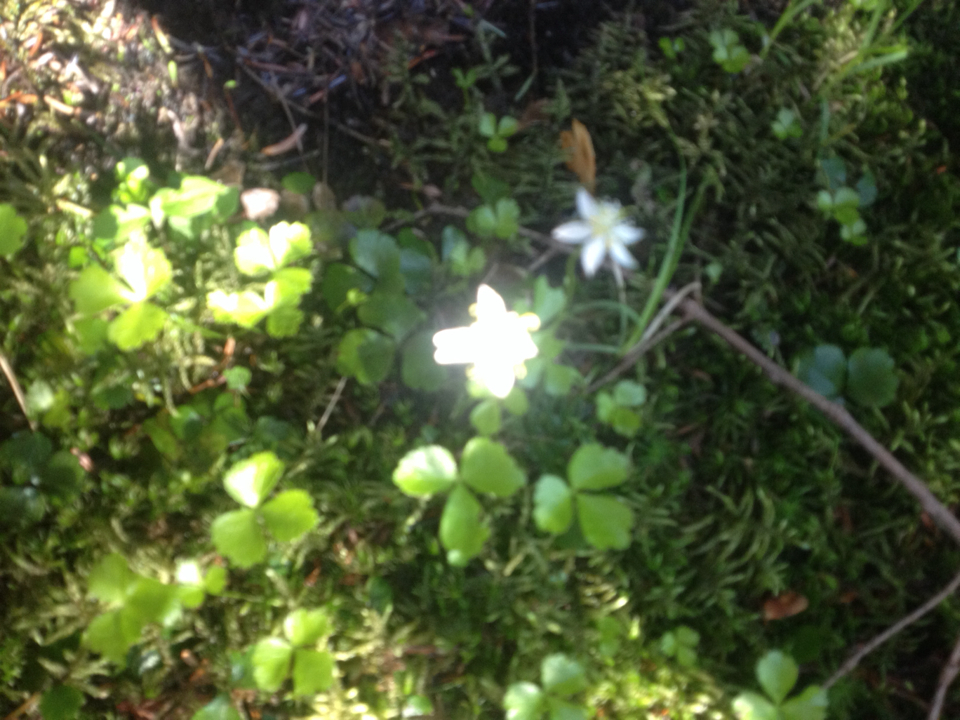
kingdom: Plantae
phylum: Tracheophyta
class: Magnoliopsida
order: Ranunculales
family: Ranunculaceae
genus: Coptis
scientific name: Coptis trifolia
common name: Canker-root
